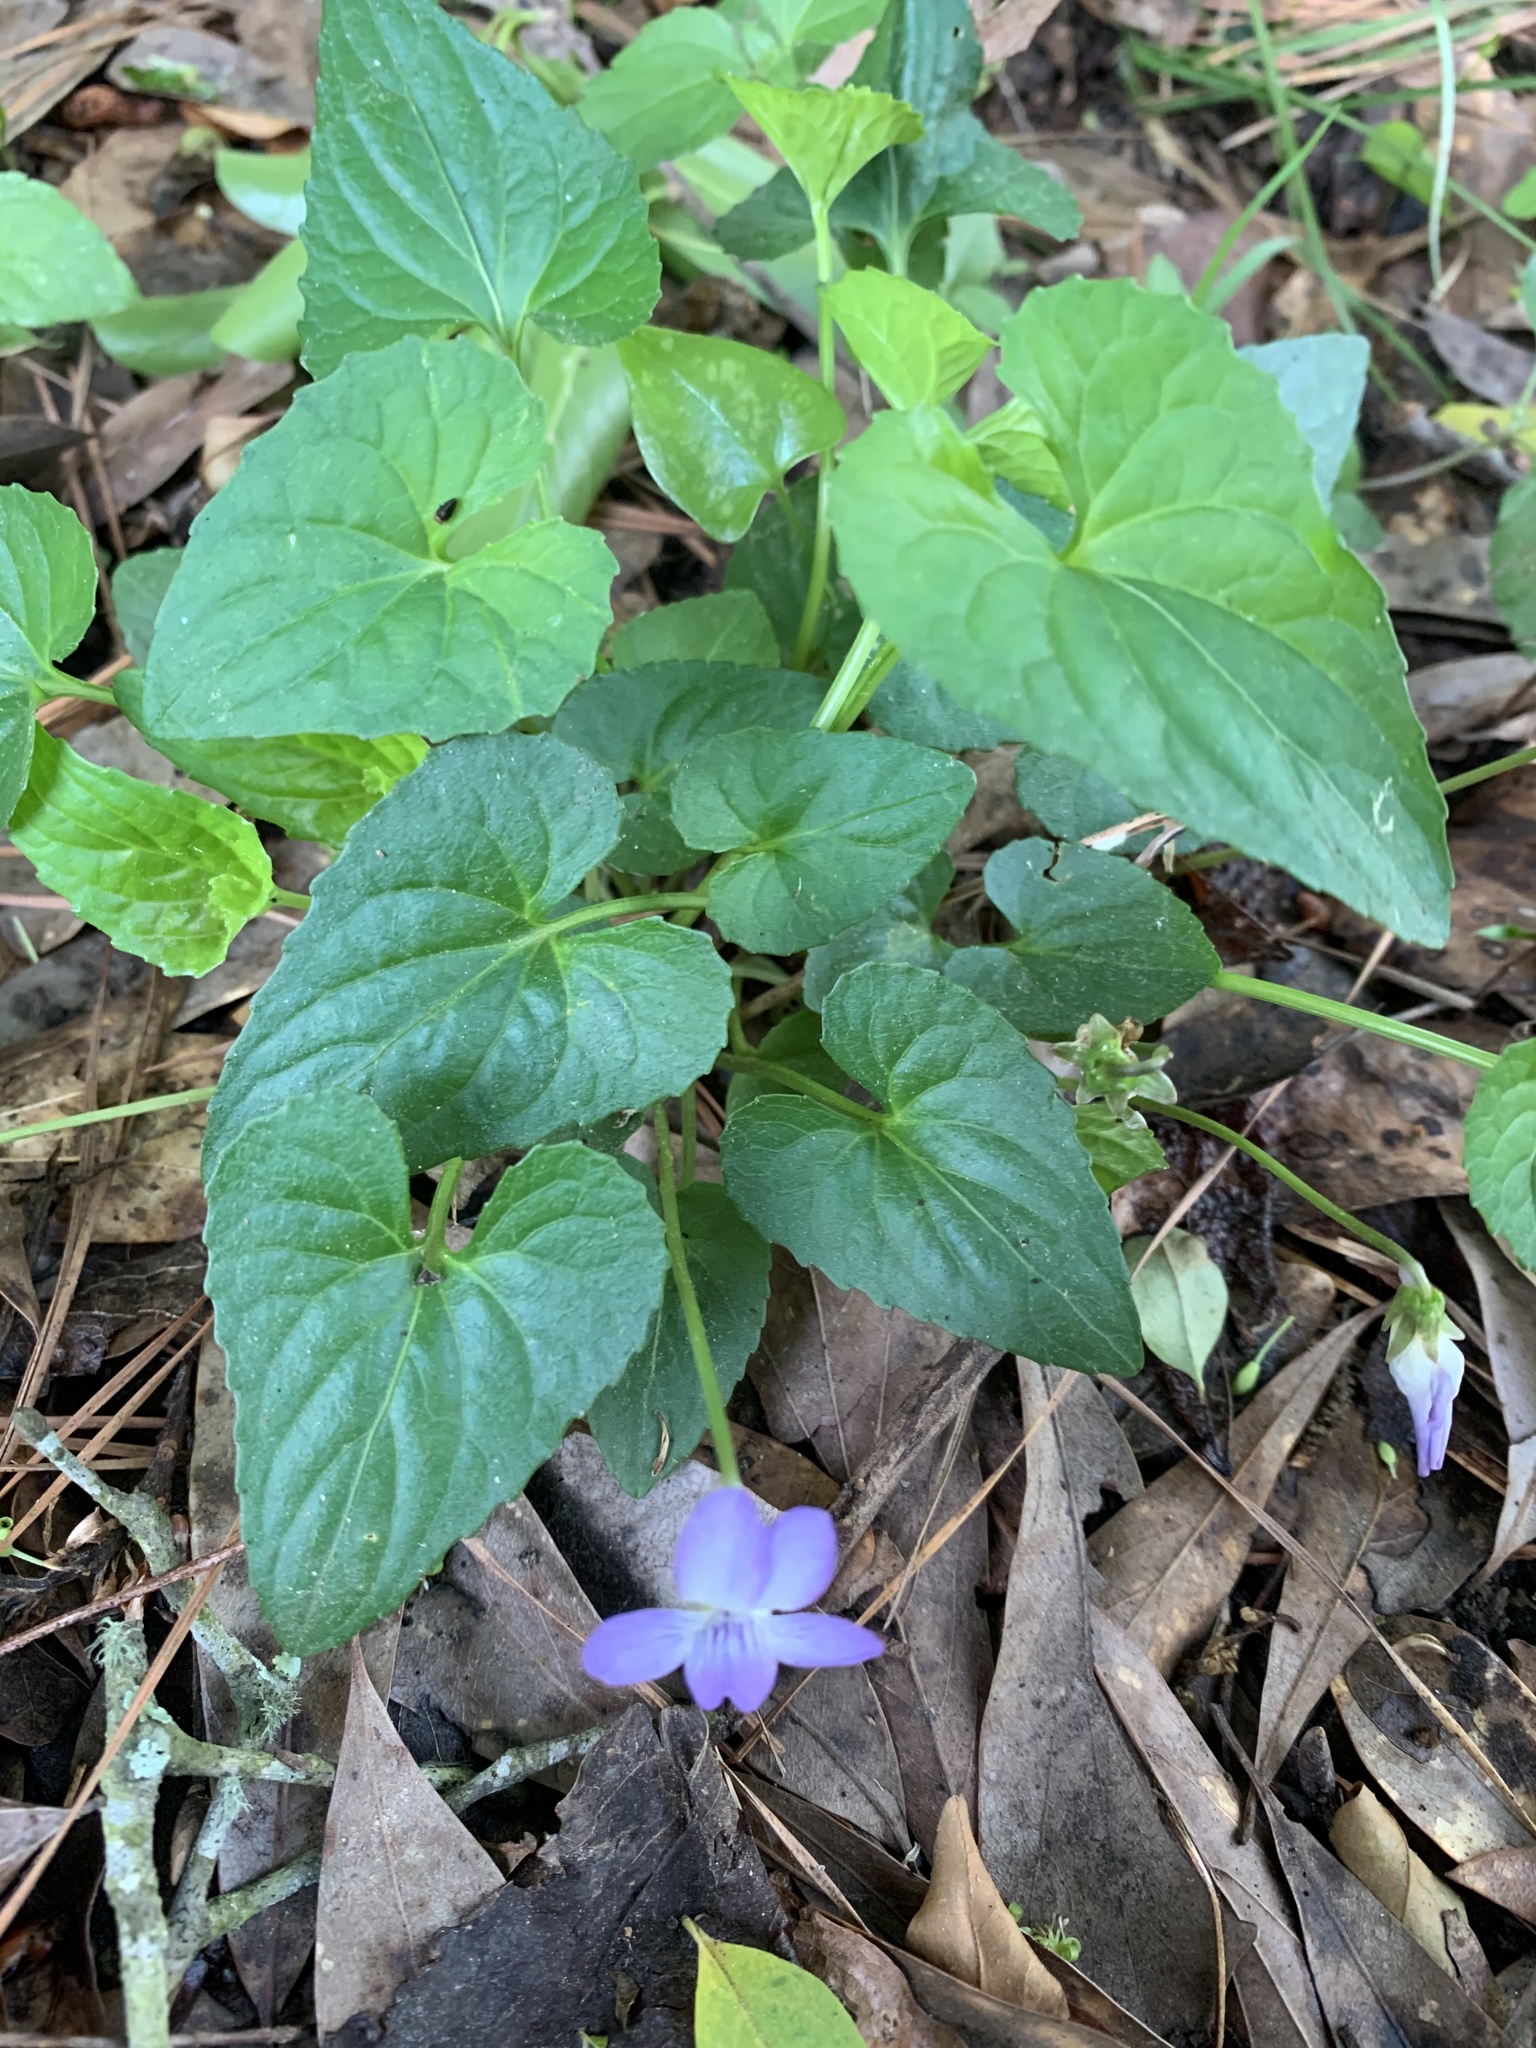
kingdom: Plantae
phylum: Tracheophyta
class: Magnoliopsida
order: Malpighiales
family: Violaceae
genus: Viola
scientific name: Viola missouriensis
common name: Missouri violet
